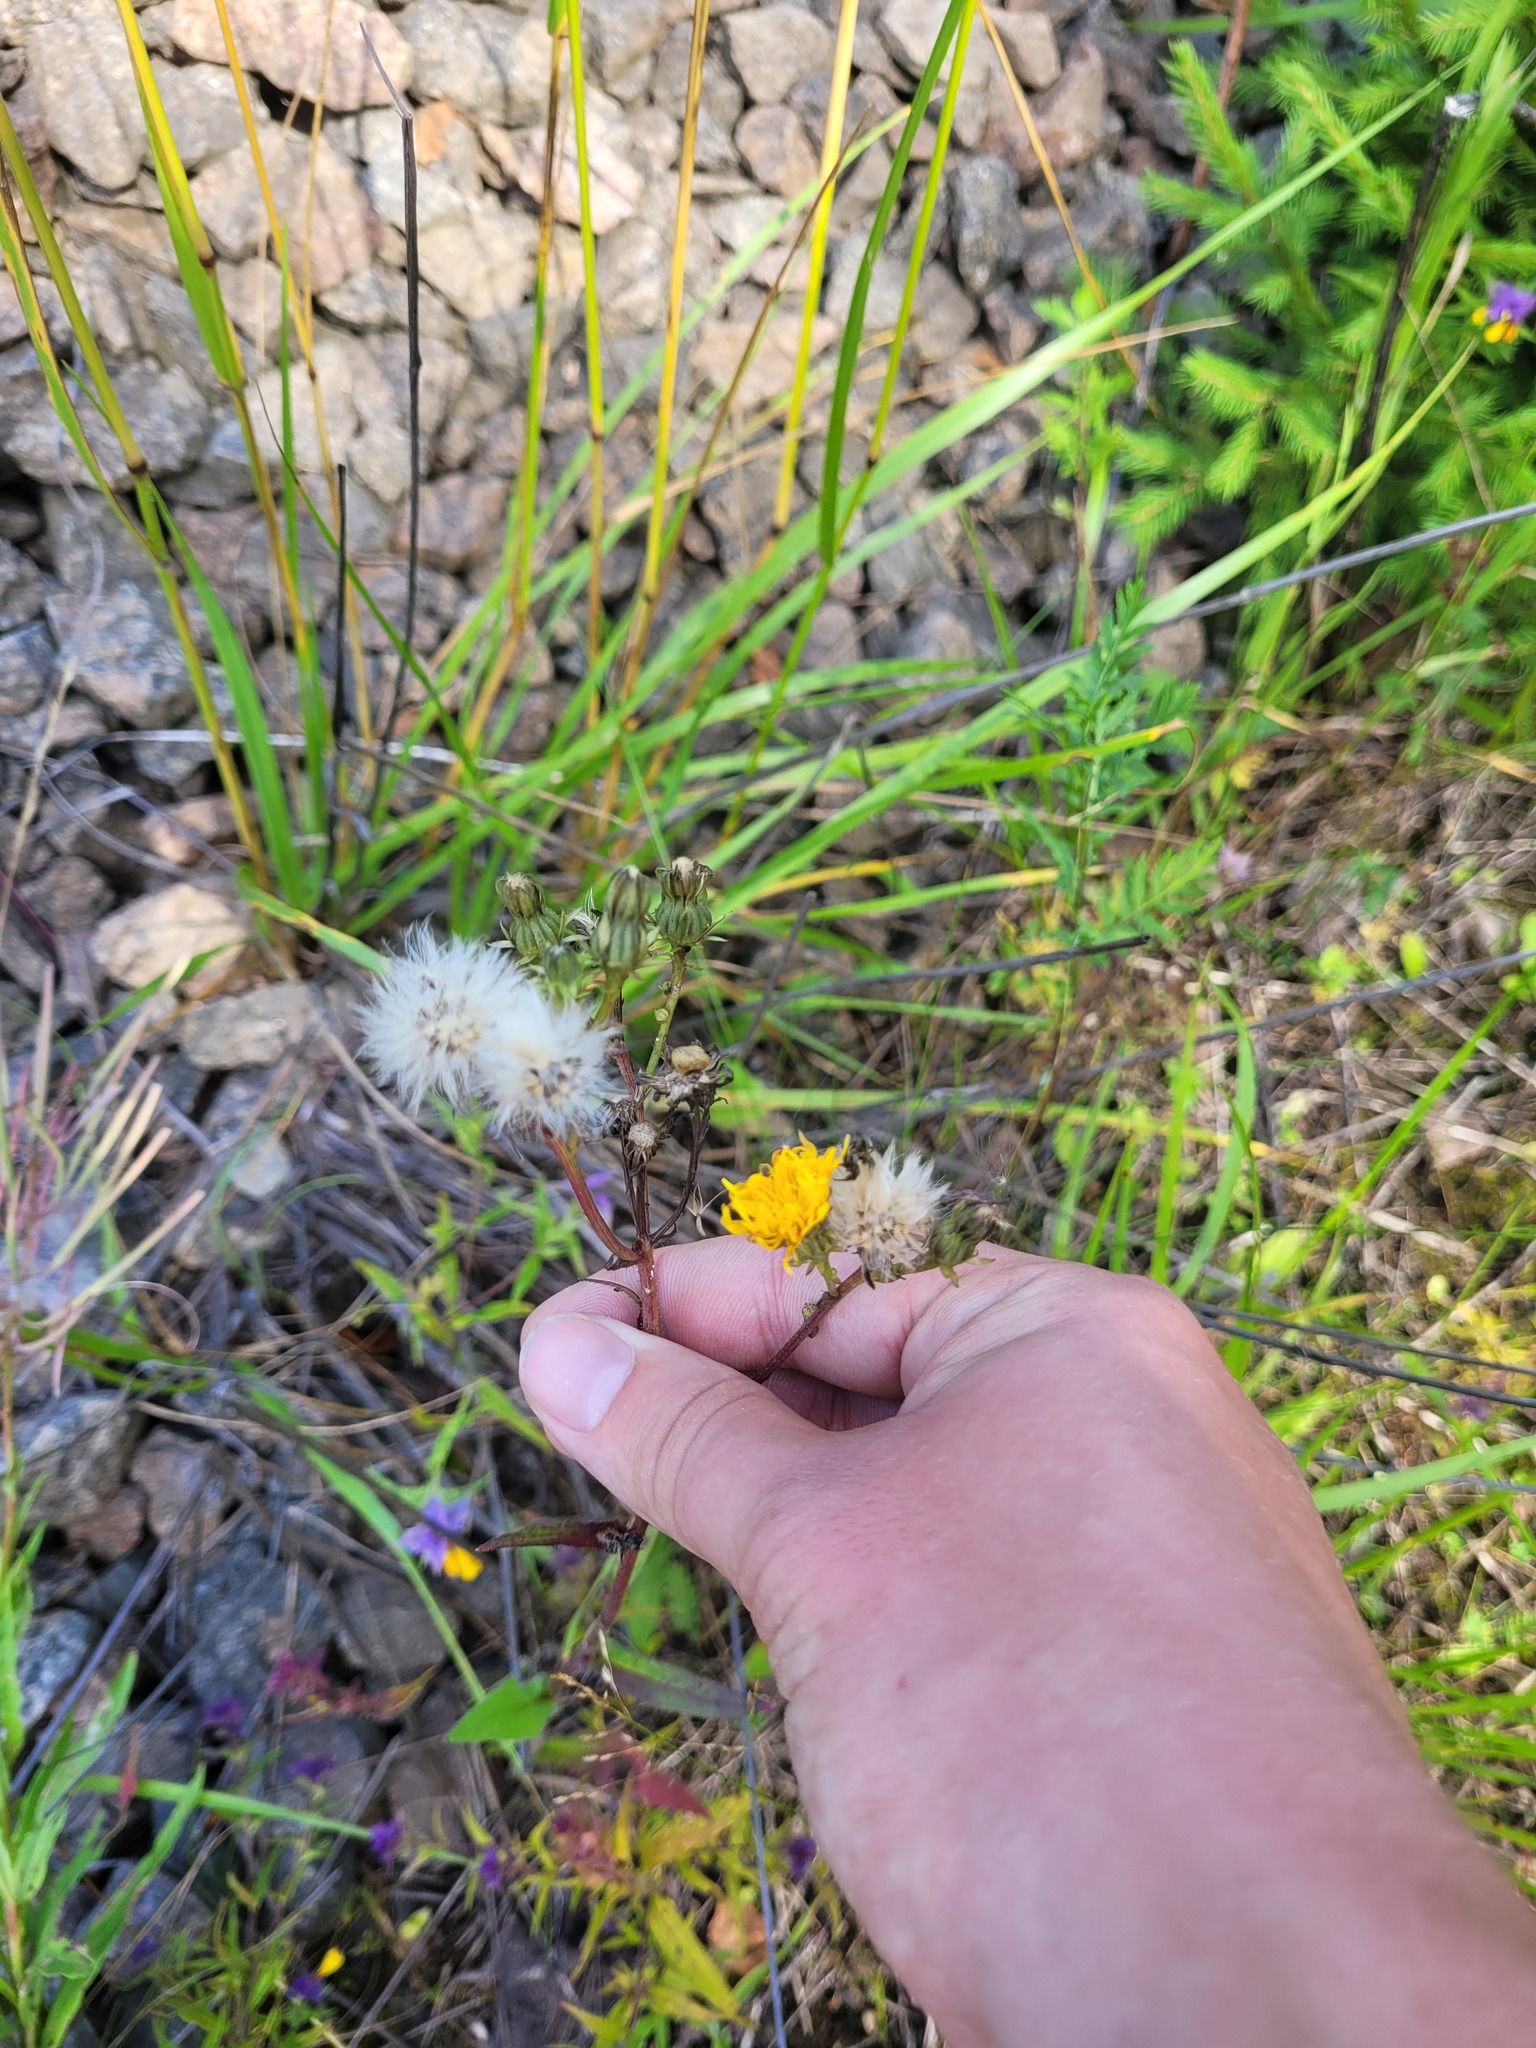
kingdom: Plantae
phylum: Tracheophyta
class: Magnoliopsida
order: Asterales
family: Asteraceae
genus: Picris
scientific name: Picris hieracioides
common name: Hawkweed oxtongue
